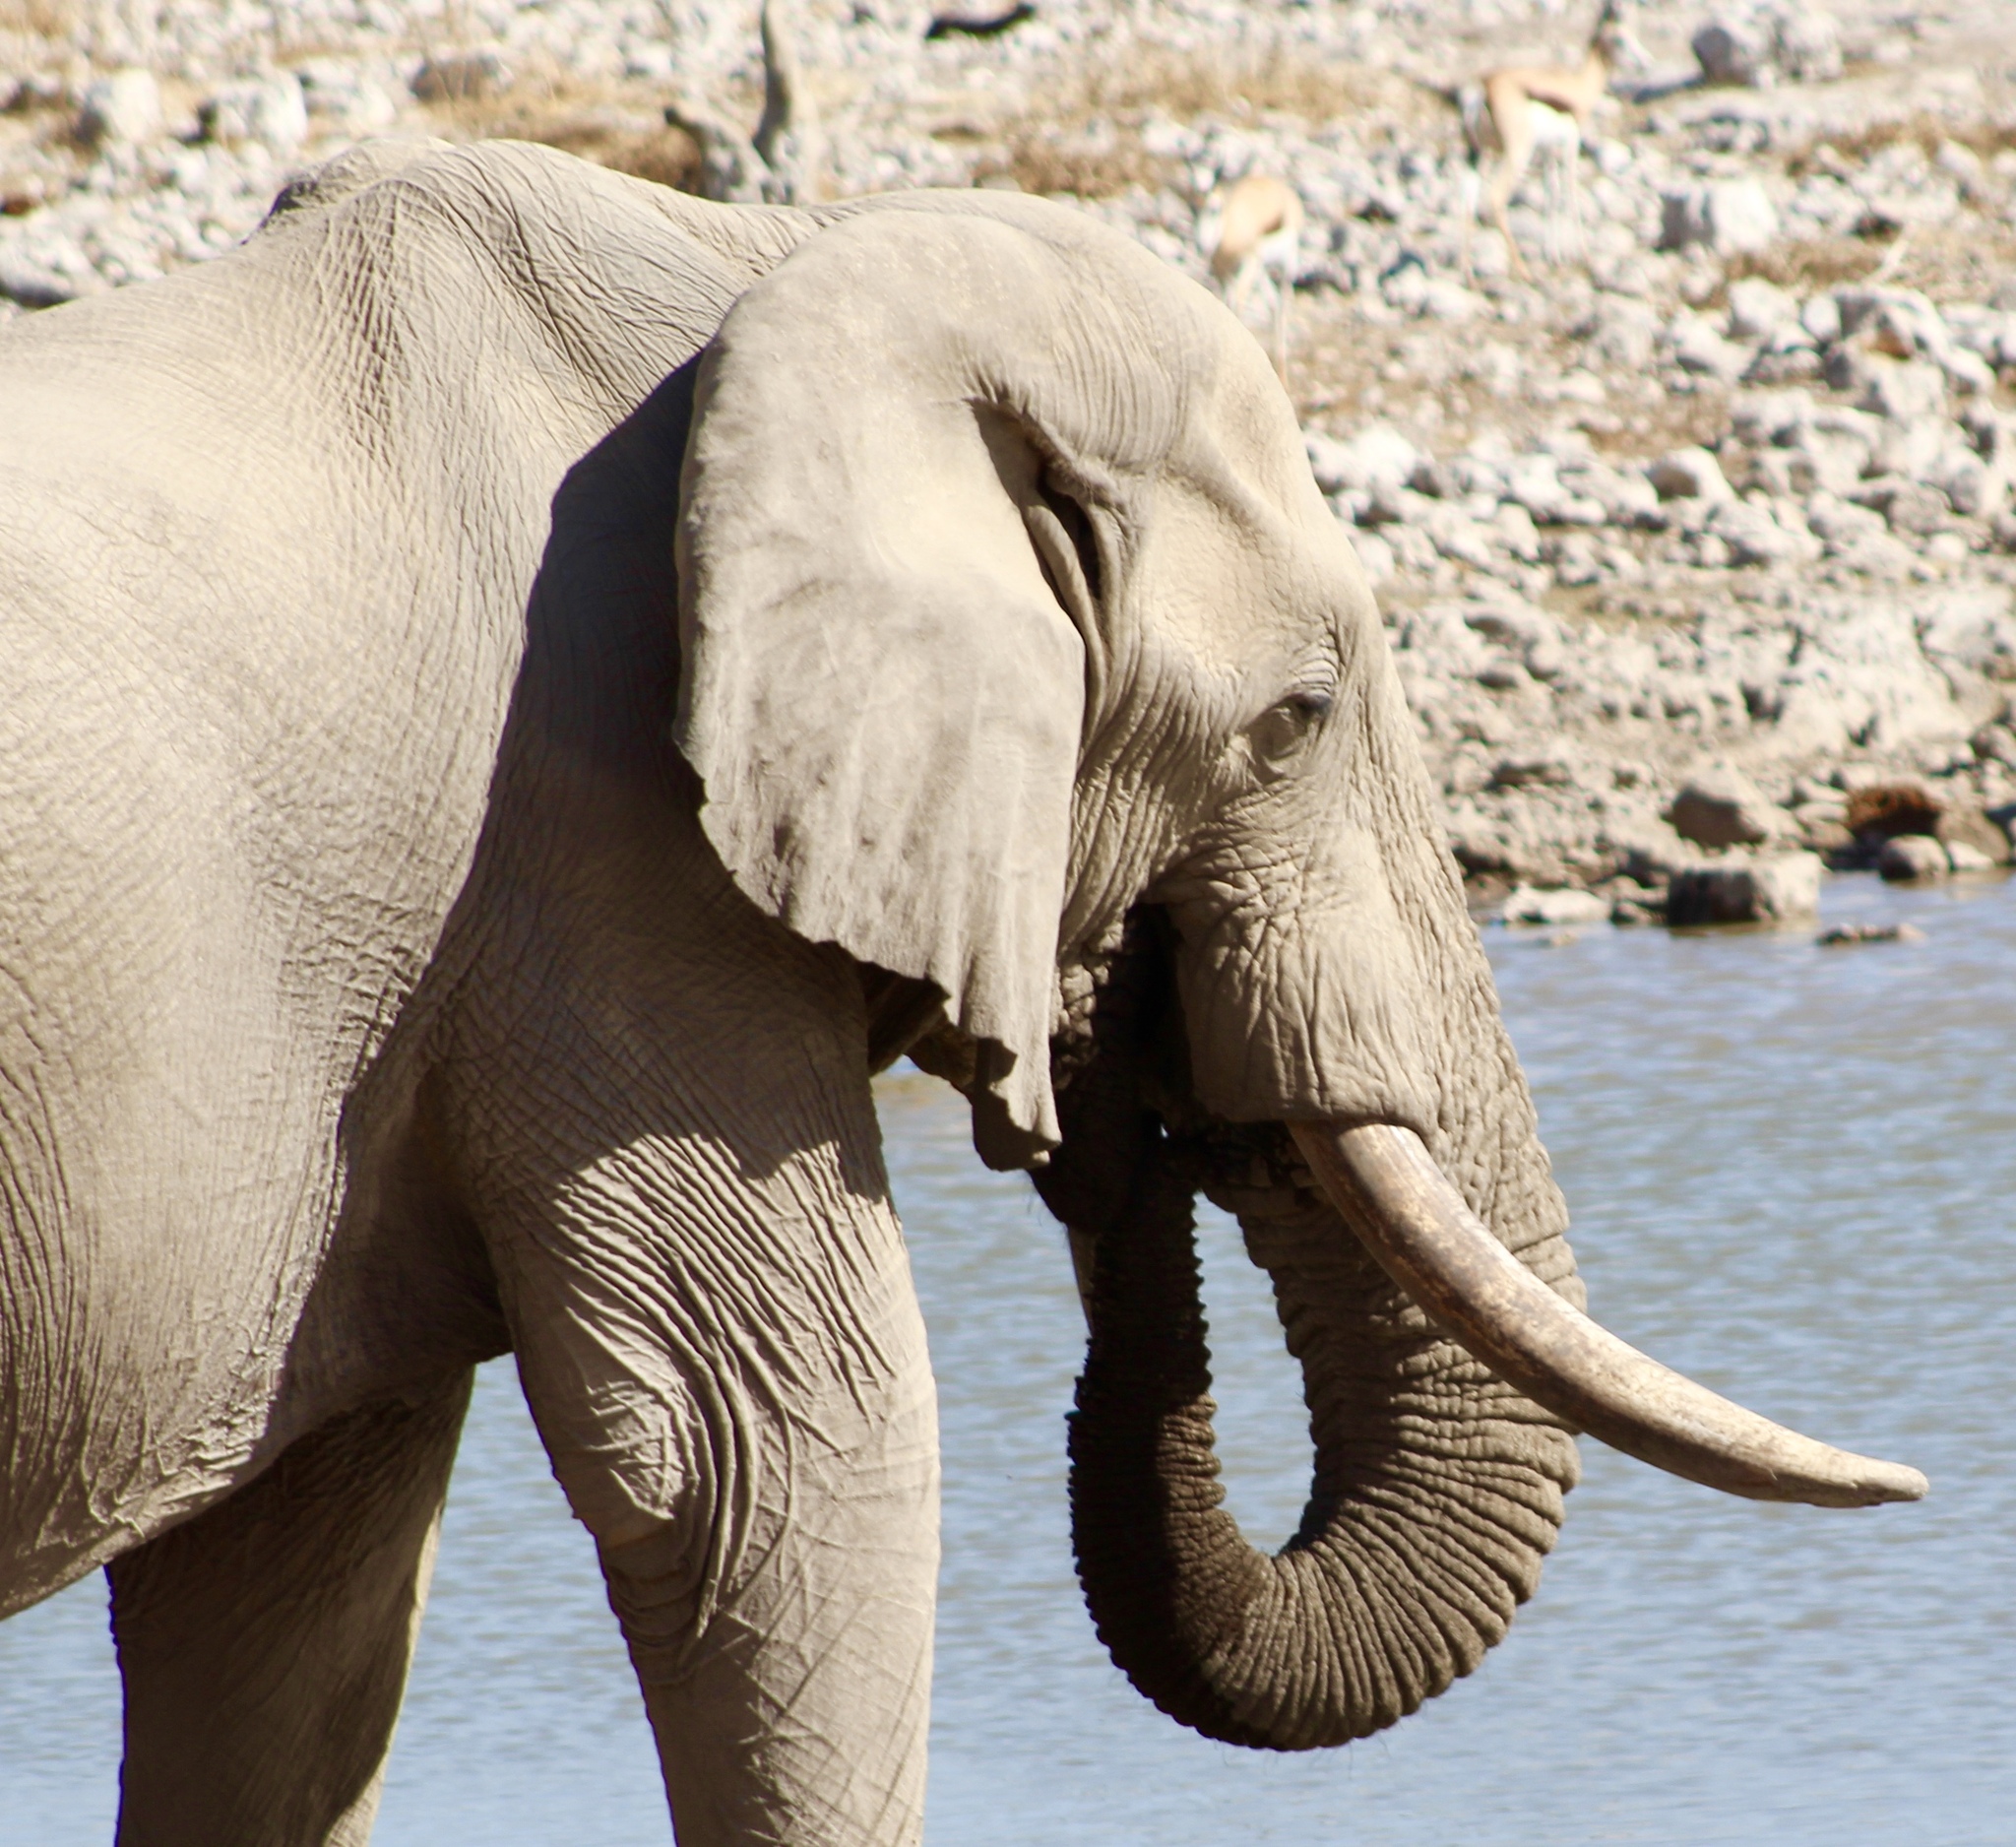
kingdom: Animalia
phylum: Chordata
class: Mammalia
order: Proboscidea
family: Elephantidae
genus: Loxodonta
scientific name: Loxodonta africana
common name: African elephant
